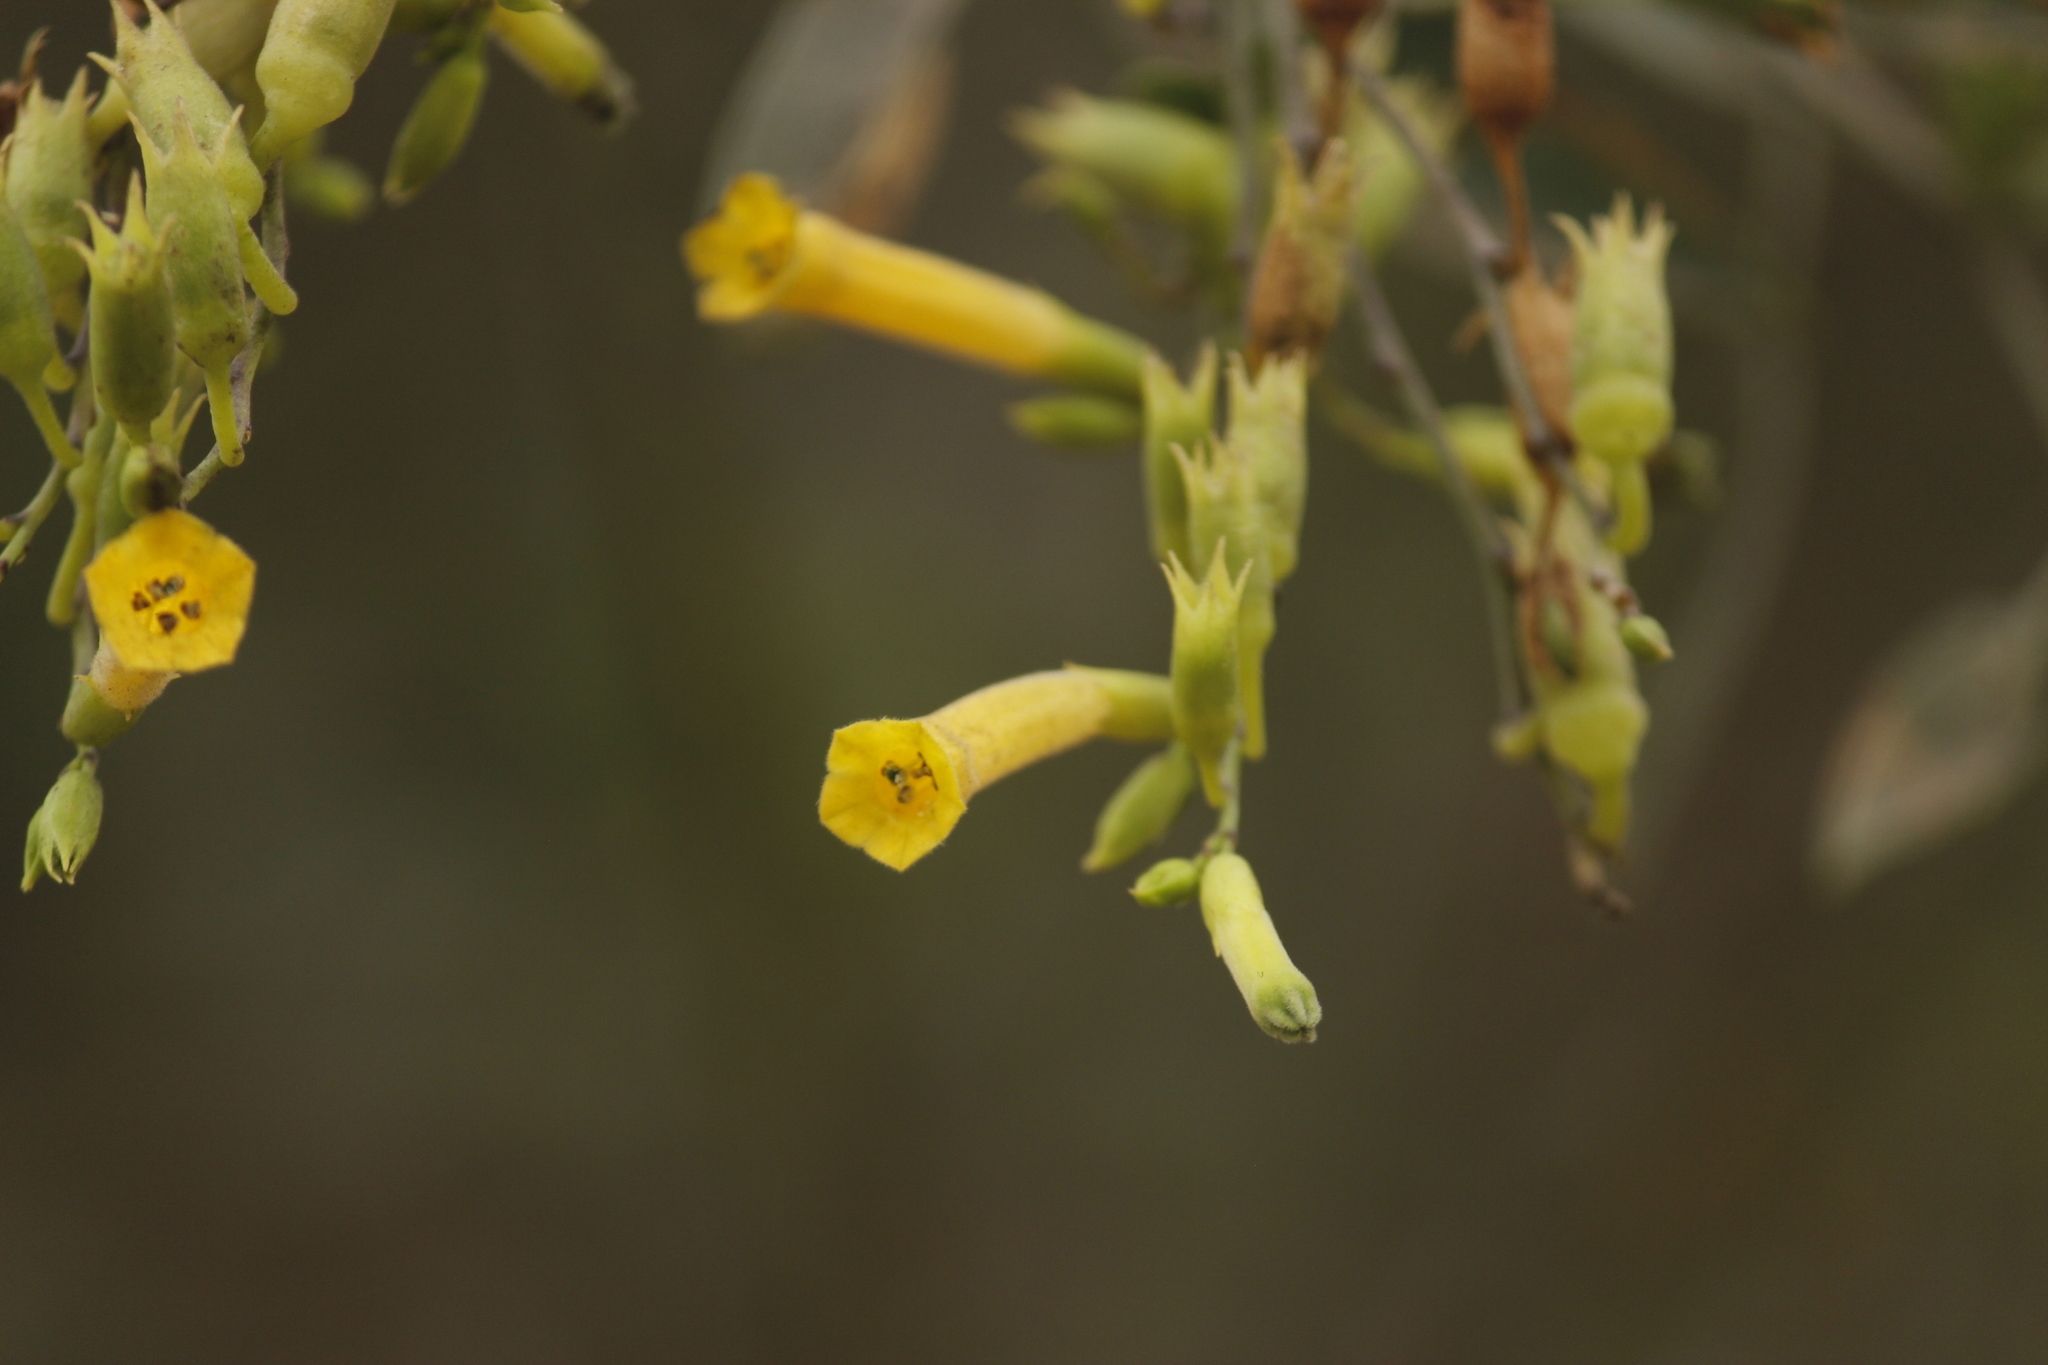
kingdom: Plantae
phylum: Tracheophyta
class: Magnoliopsida
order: Solanales
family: Solanaceae
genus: Nicotiana
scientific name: Nicotiana glauca
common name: Tree tobacco
